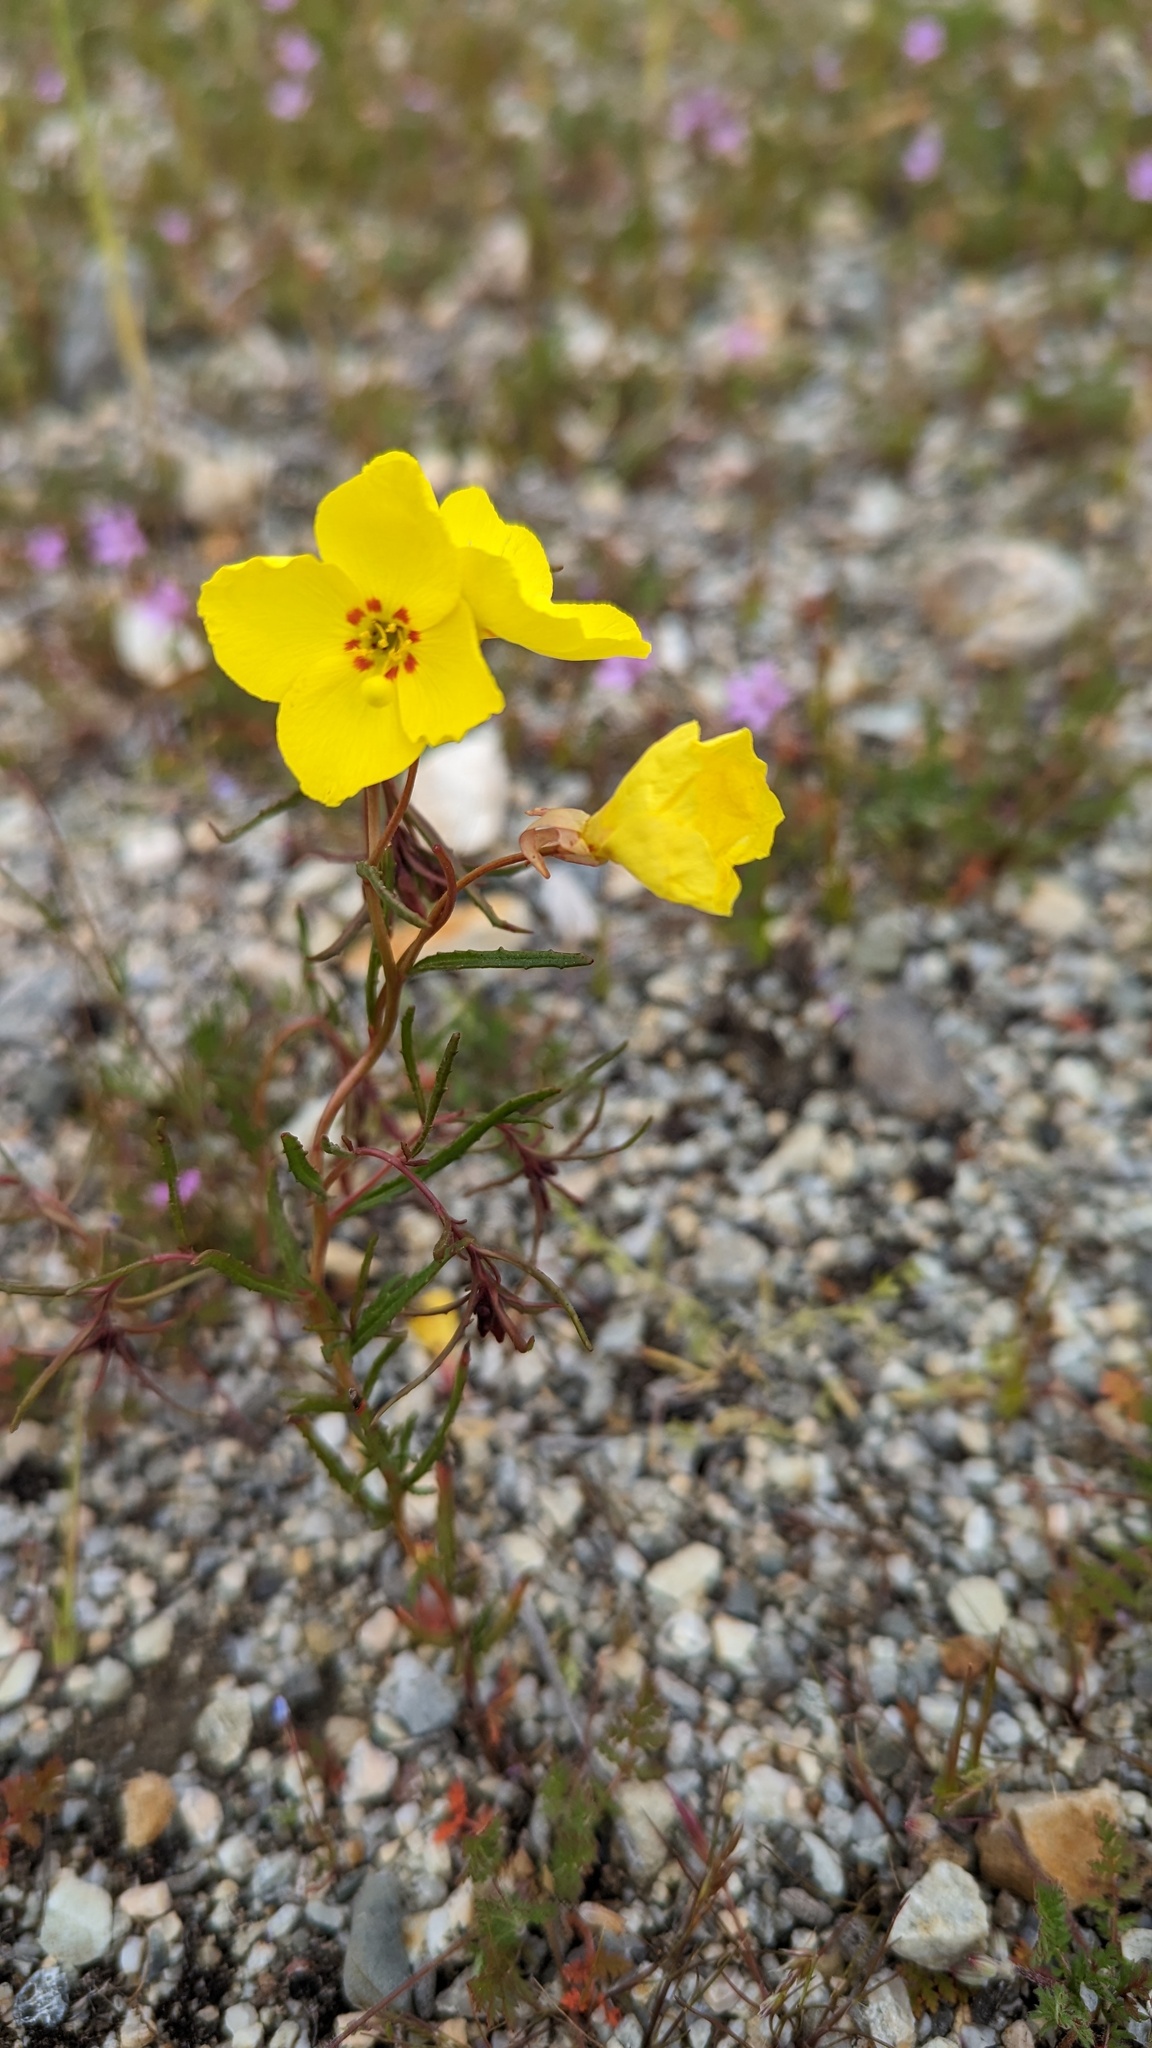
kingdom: Plantae
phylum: Tracheophyta
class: Magnoliopsida
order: Myrtales
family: Onagraceae
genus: Camissonia
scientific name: Camissonia campestris
